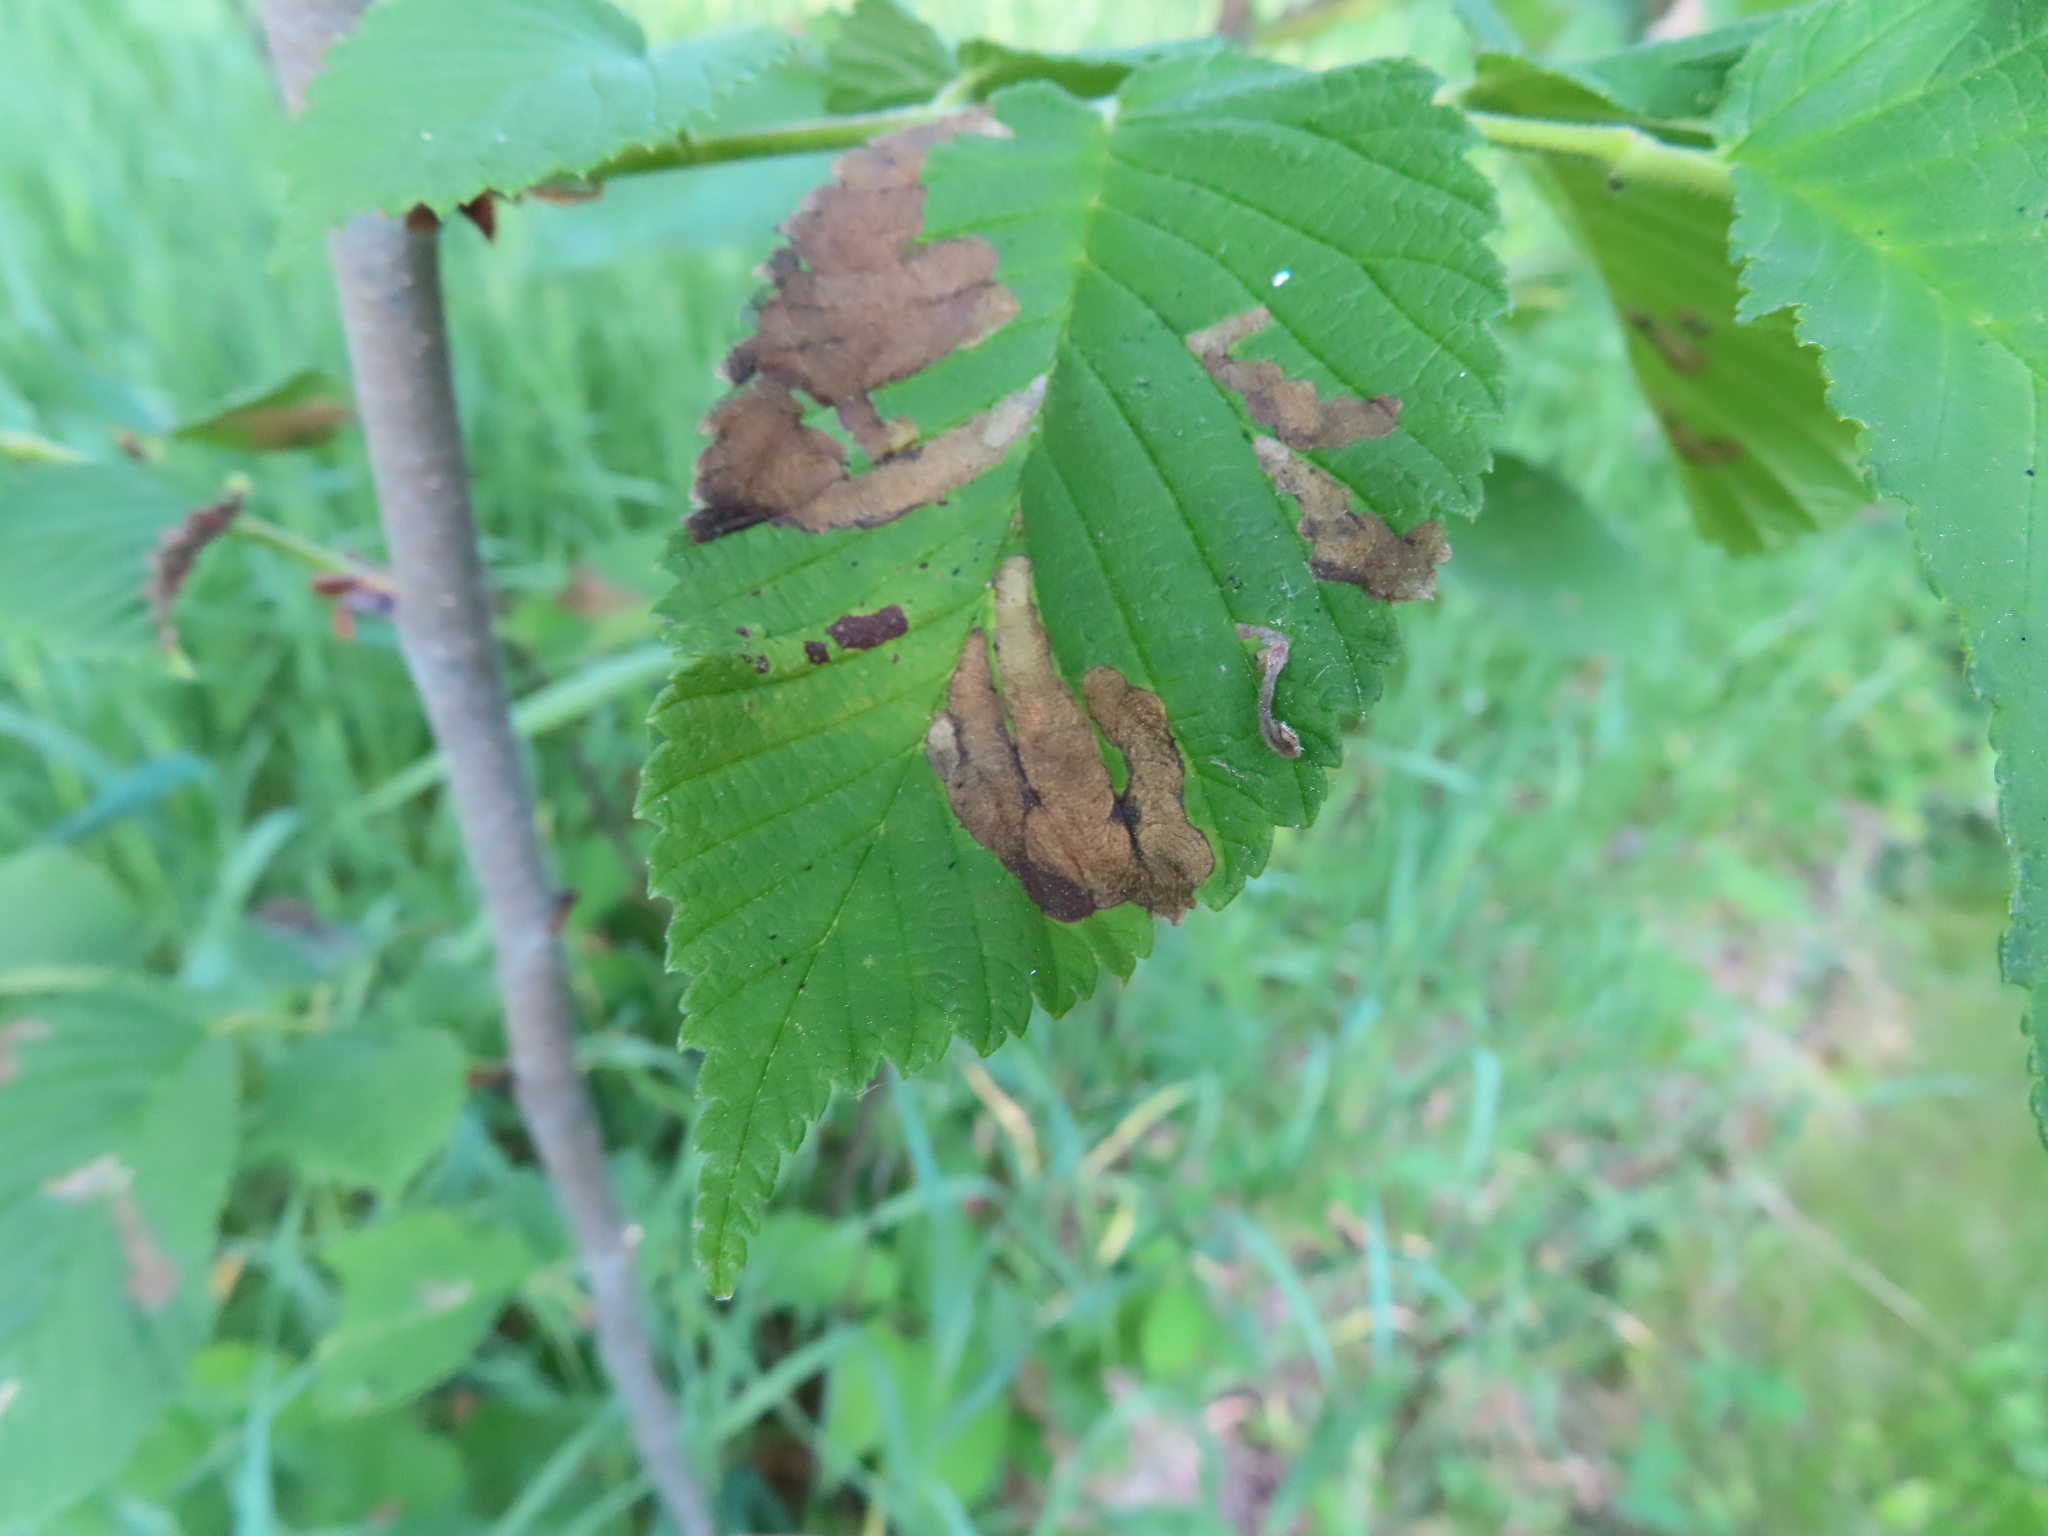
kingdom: Animalia
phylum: Arthropoda
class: Insecta
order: Hymenoptera
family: Tenthredinidae
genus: Fenusa
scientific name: Fenusa ulmi
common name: Elm leafminer
